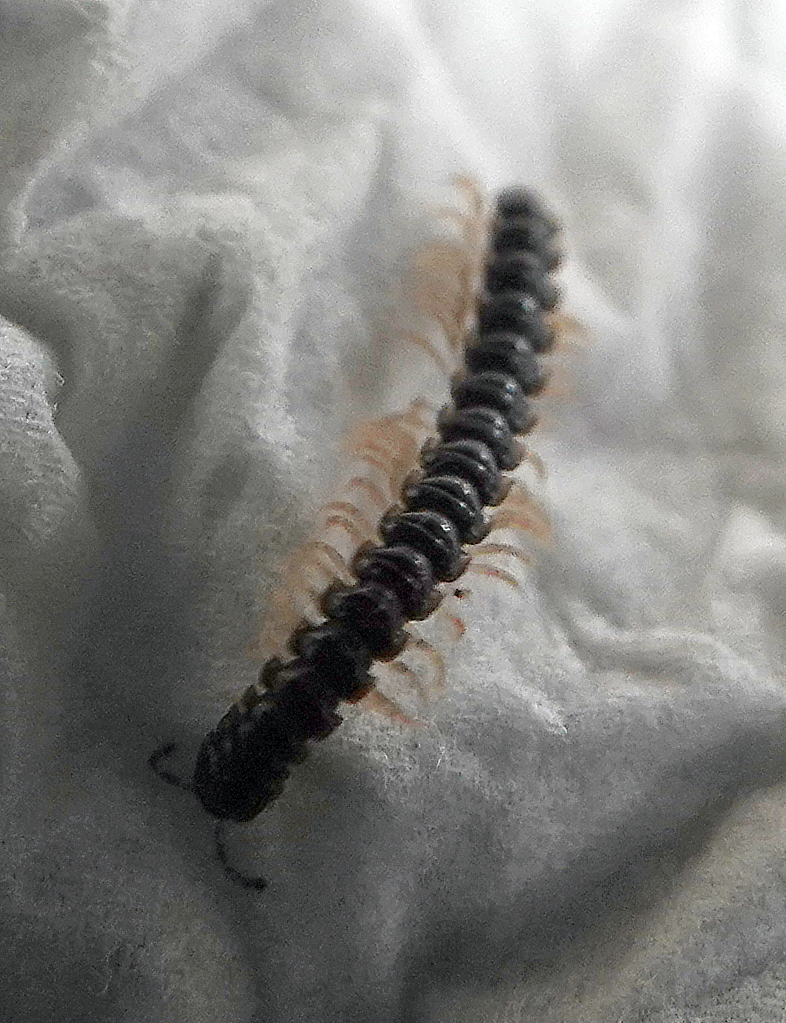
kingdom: Animalia
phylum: Arthropoda
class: Diplopoda
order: Polydesmida
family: Paradoxosomatidae
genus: Oxidus
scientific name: Oxidus gracilis
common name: Greenhouse millipede
